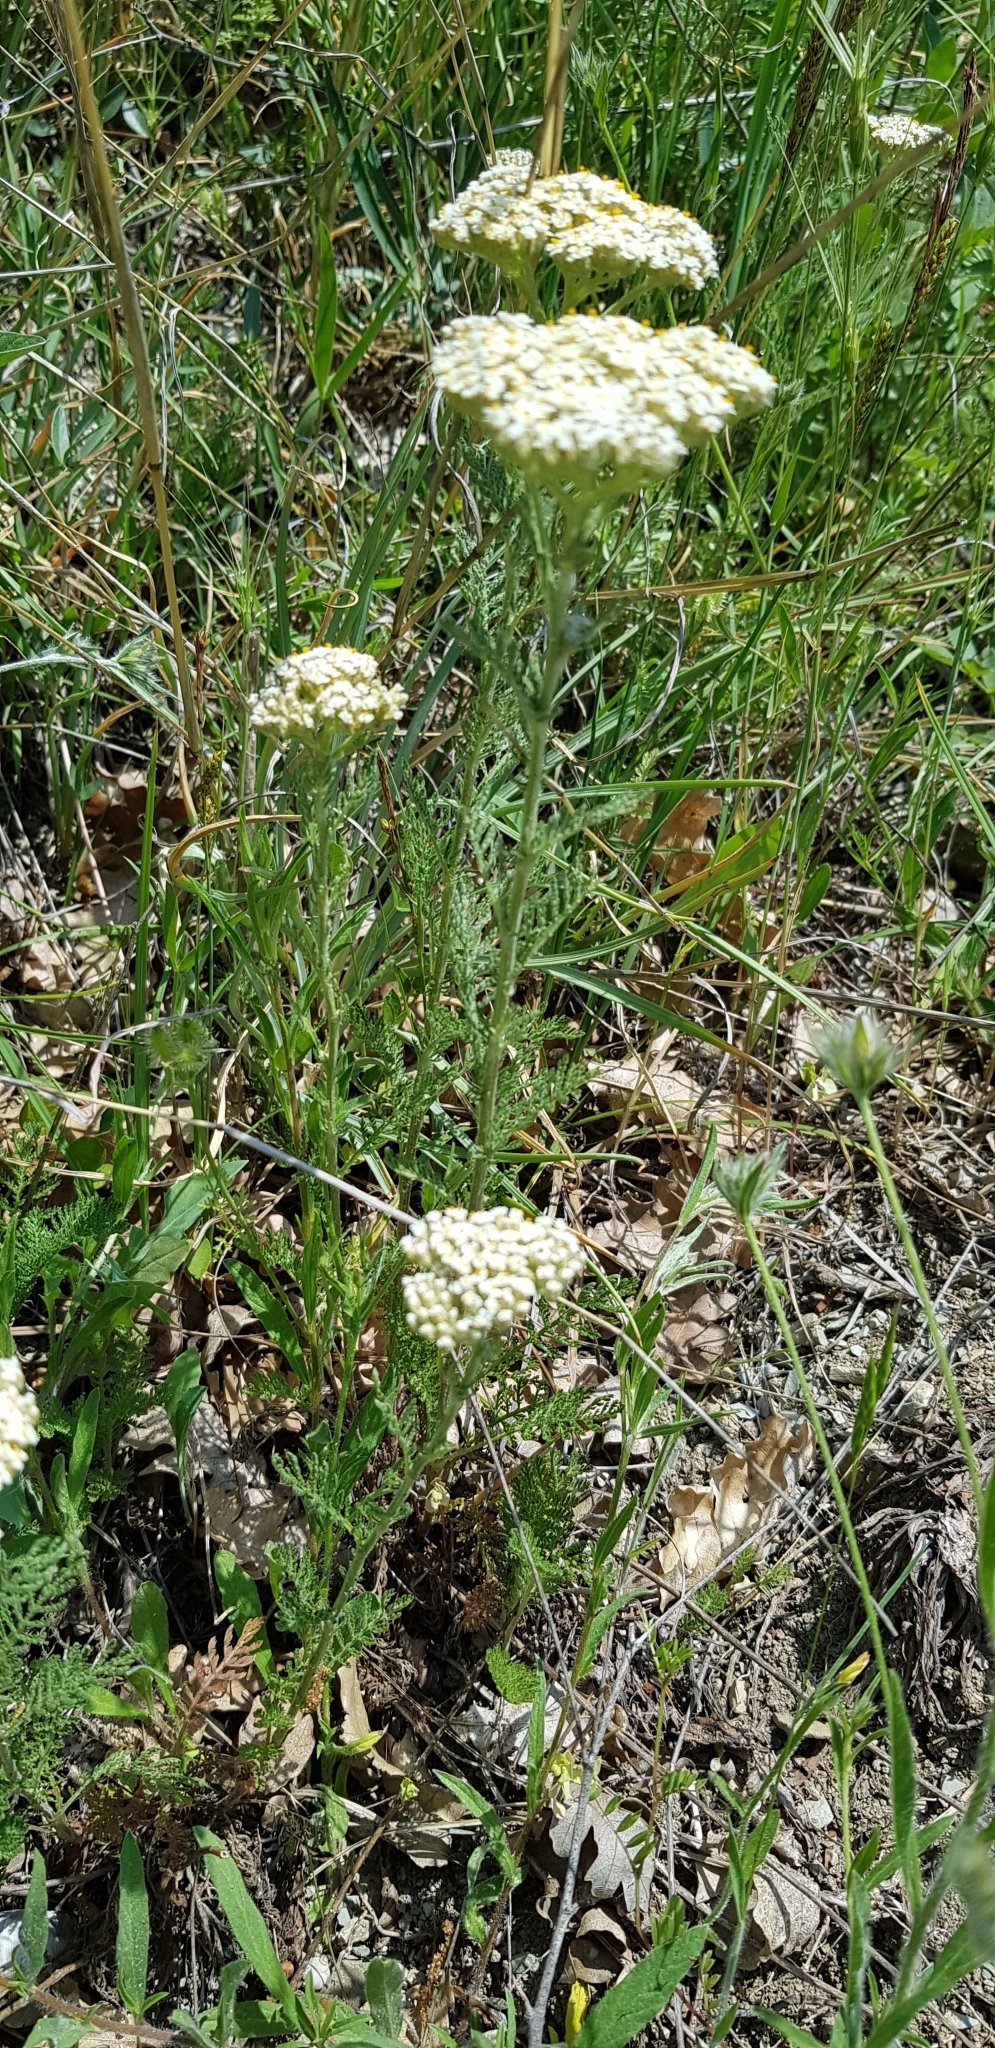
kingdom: Plantae
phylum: Tracheophyta
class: Magnoliopsida
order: Asterales
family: Asteraceae
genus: Achillea
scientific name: Achillea nobilis
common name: Noble yarrow
